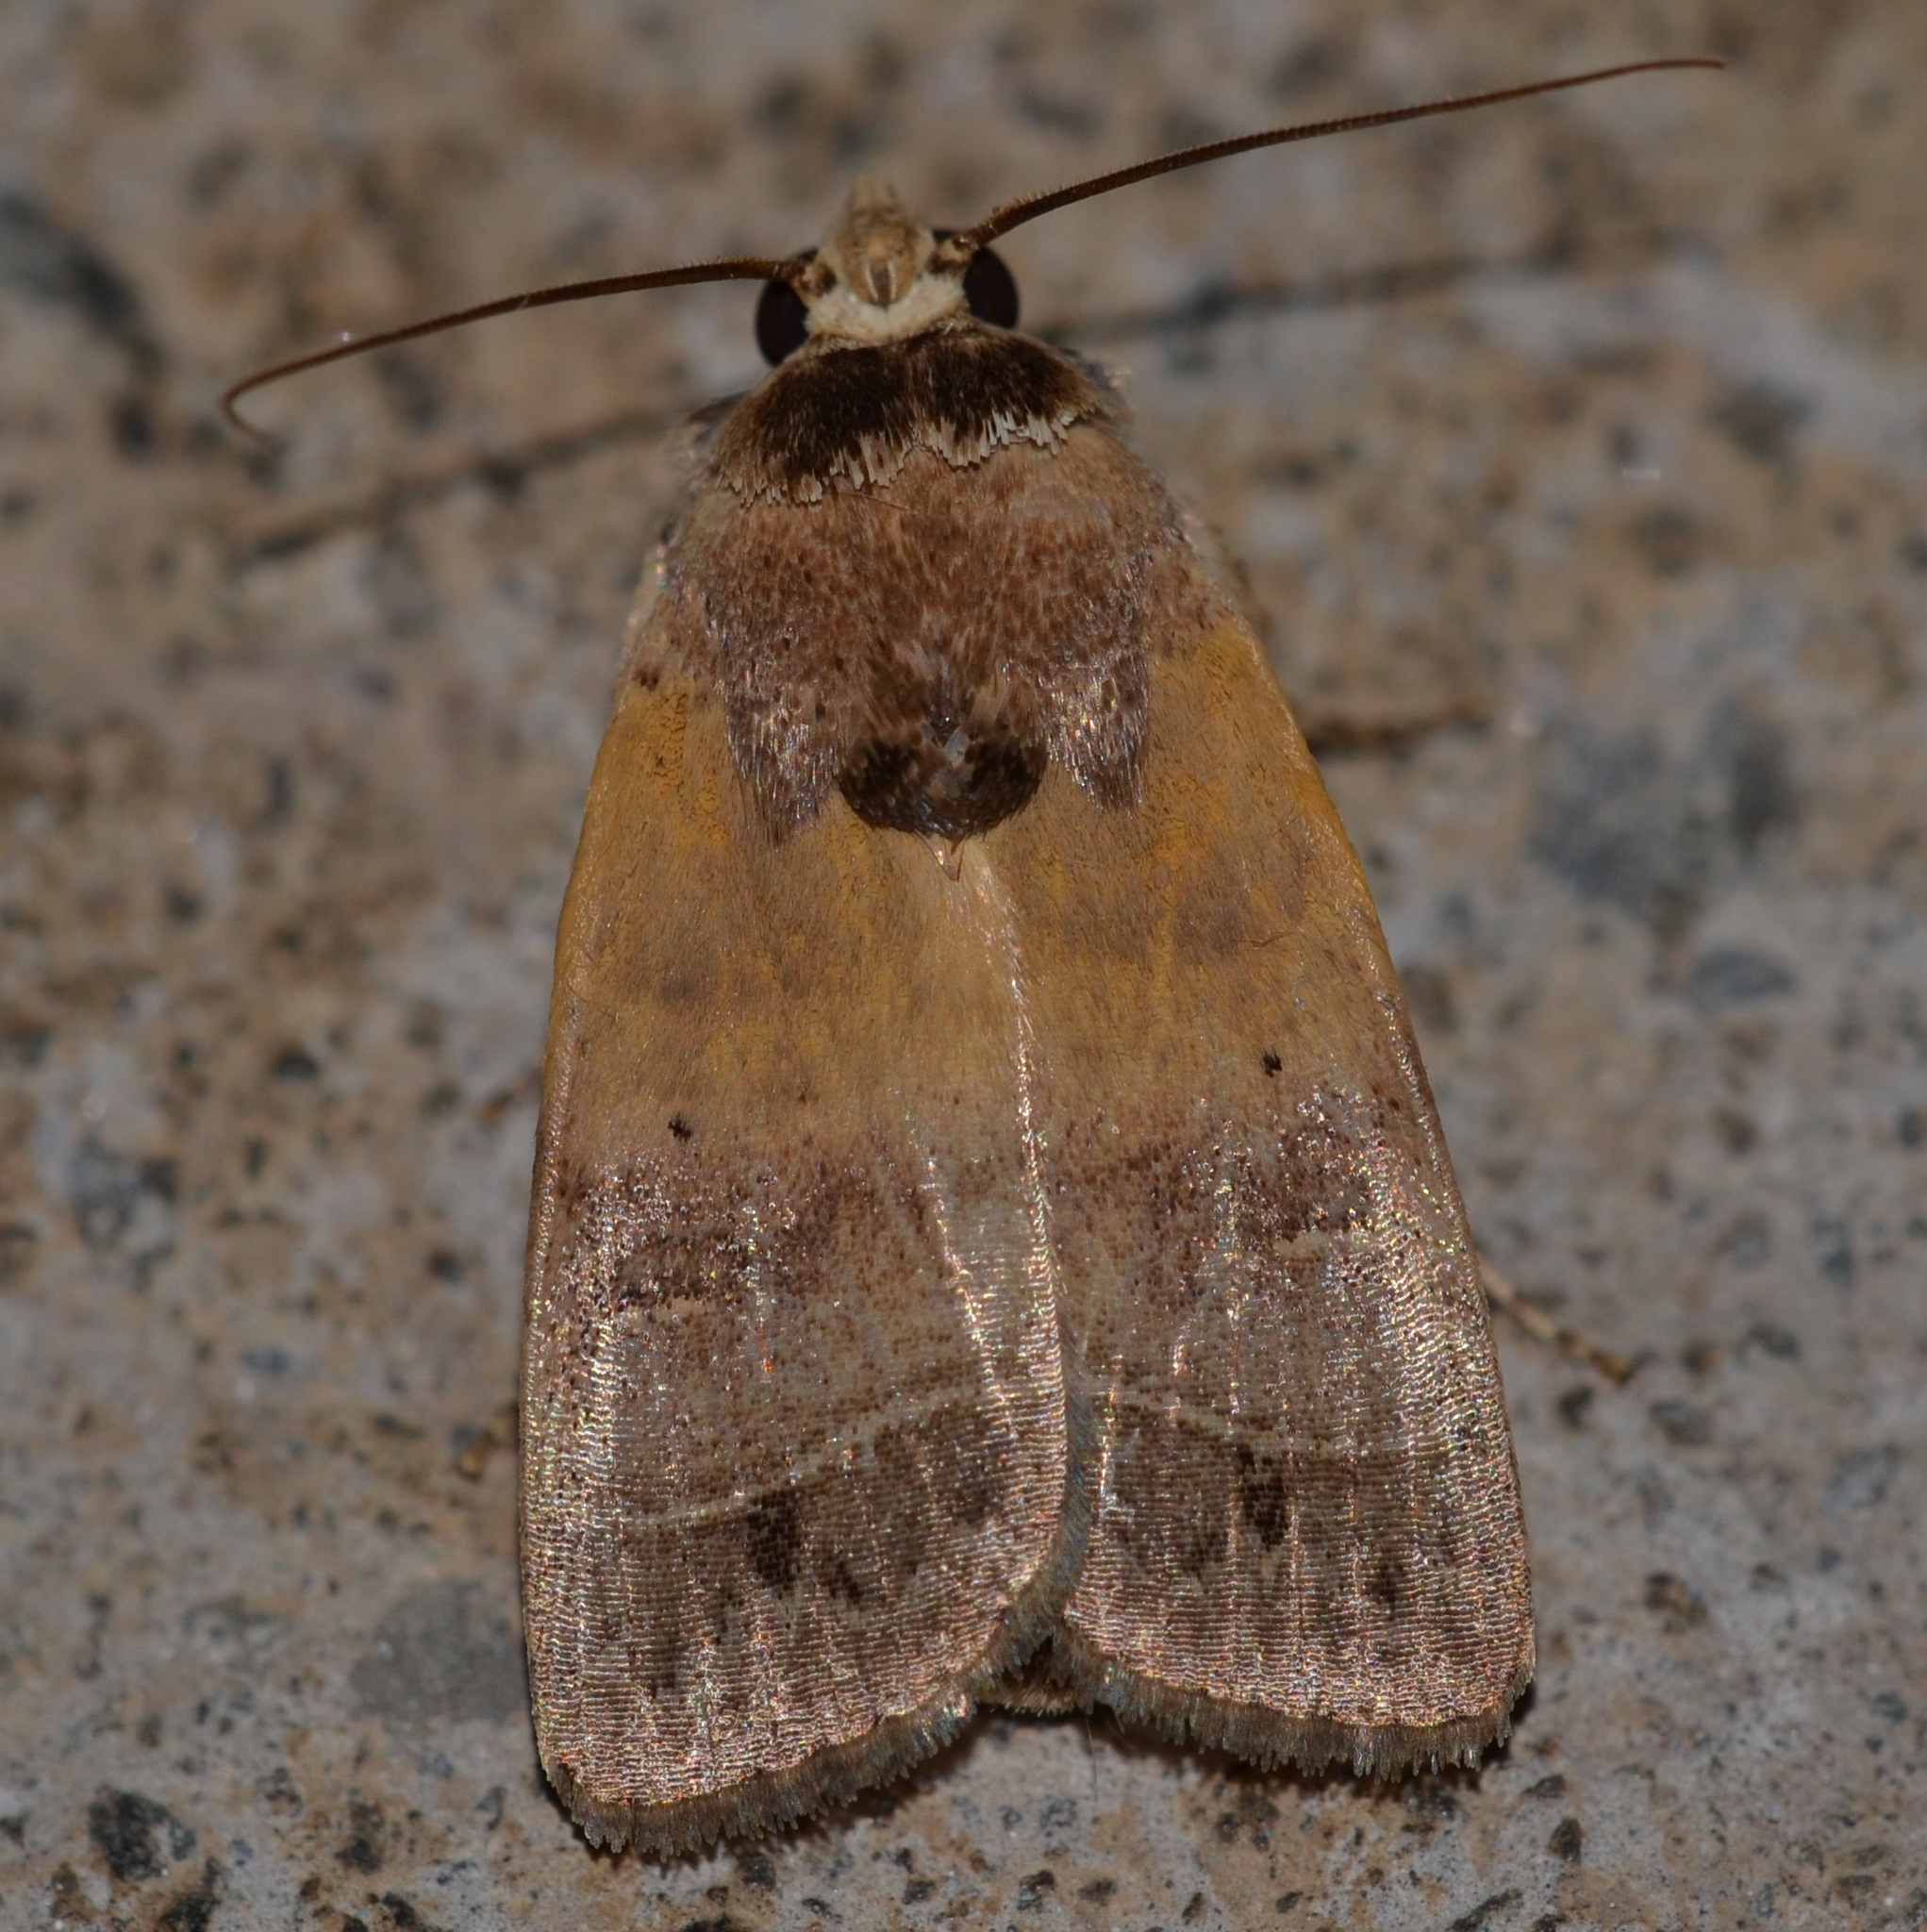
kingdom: Animalia
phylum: Arthropoda
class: Insecta
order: Lepidoptera
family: Noctuidae
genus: Athetis
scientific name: Athetis thoracica
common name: Cutworm
